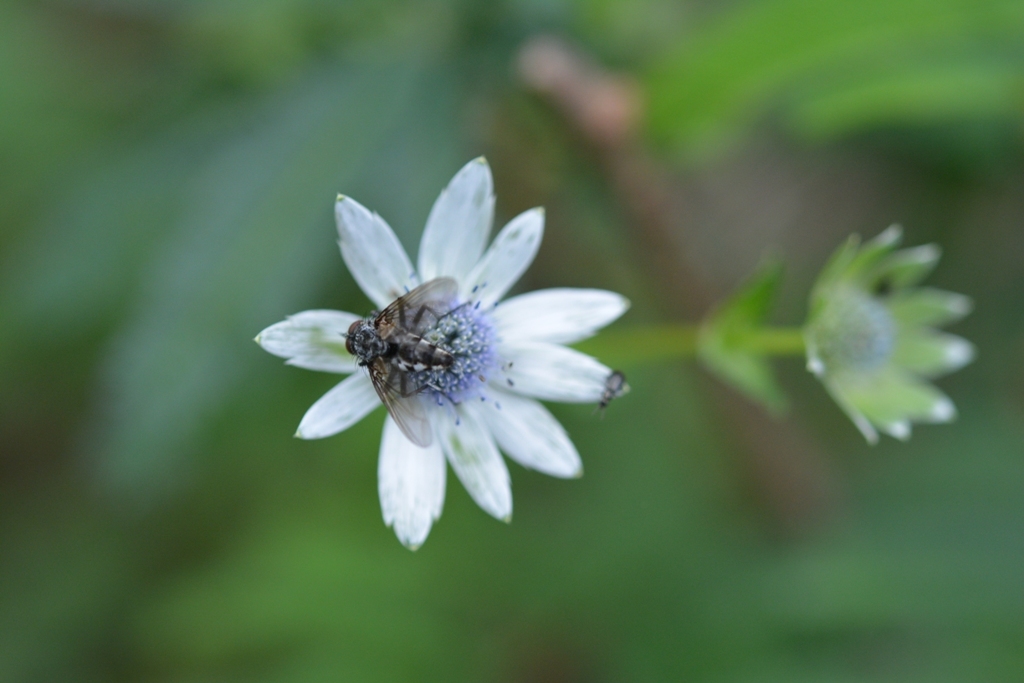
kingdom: Plantae
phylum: Tracheophyta
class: Magnoliopsida
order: Apiales
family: Apiaceae
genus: Eryngium
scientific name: Eryngium scaposum
